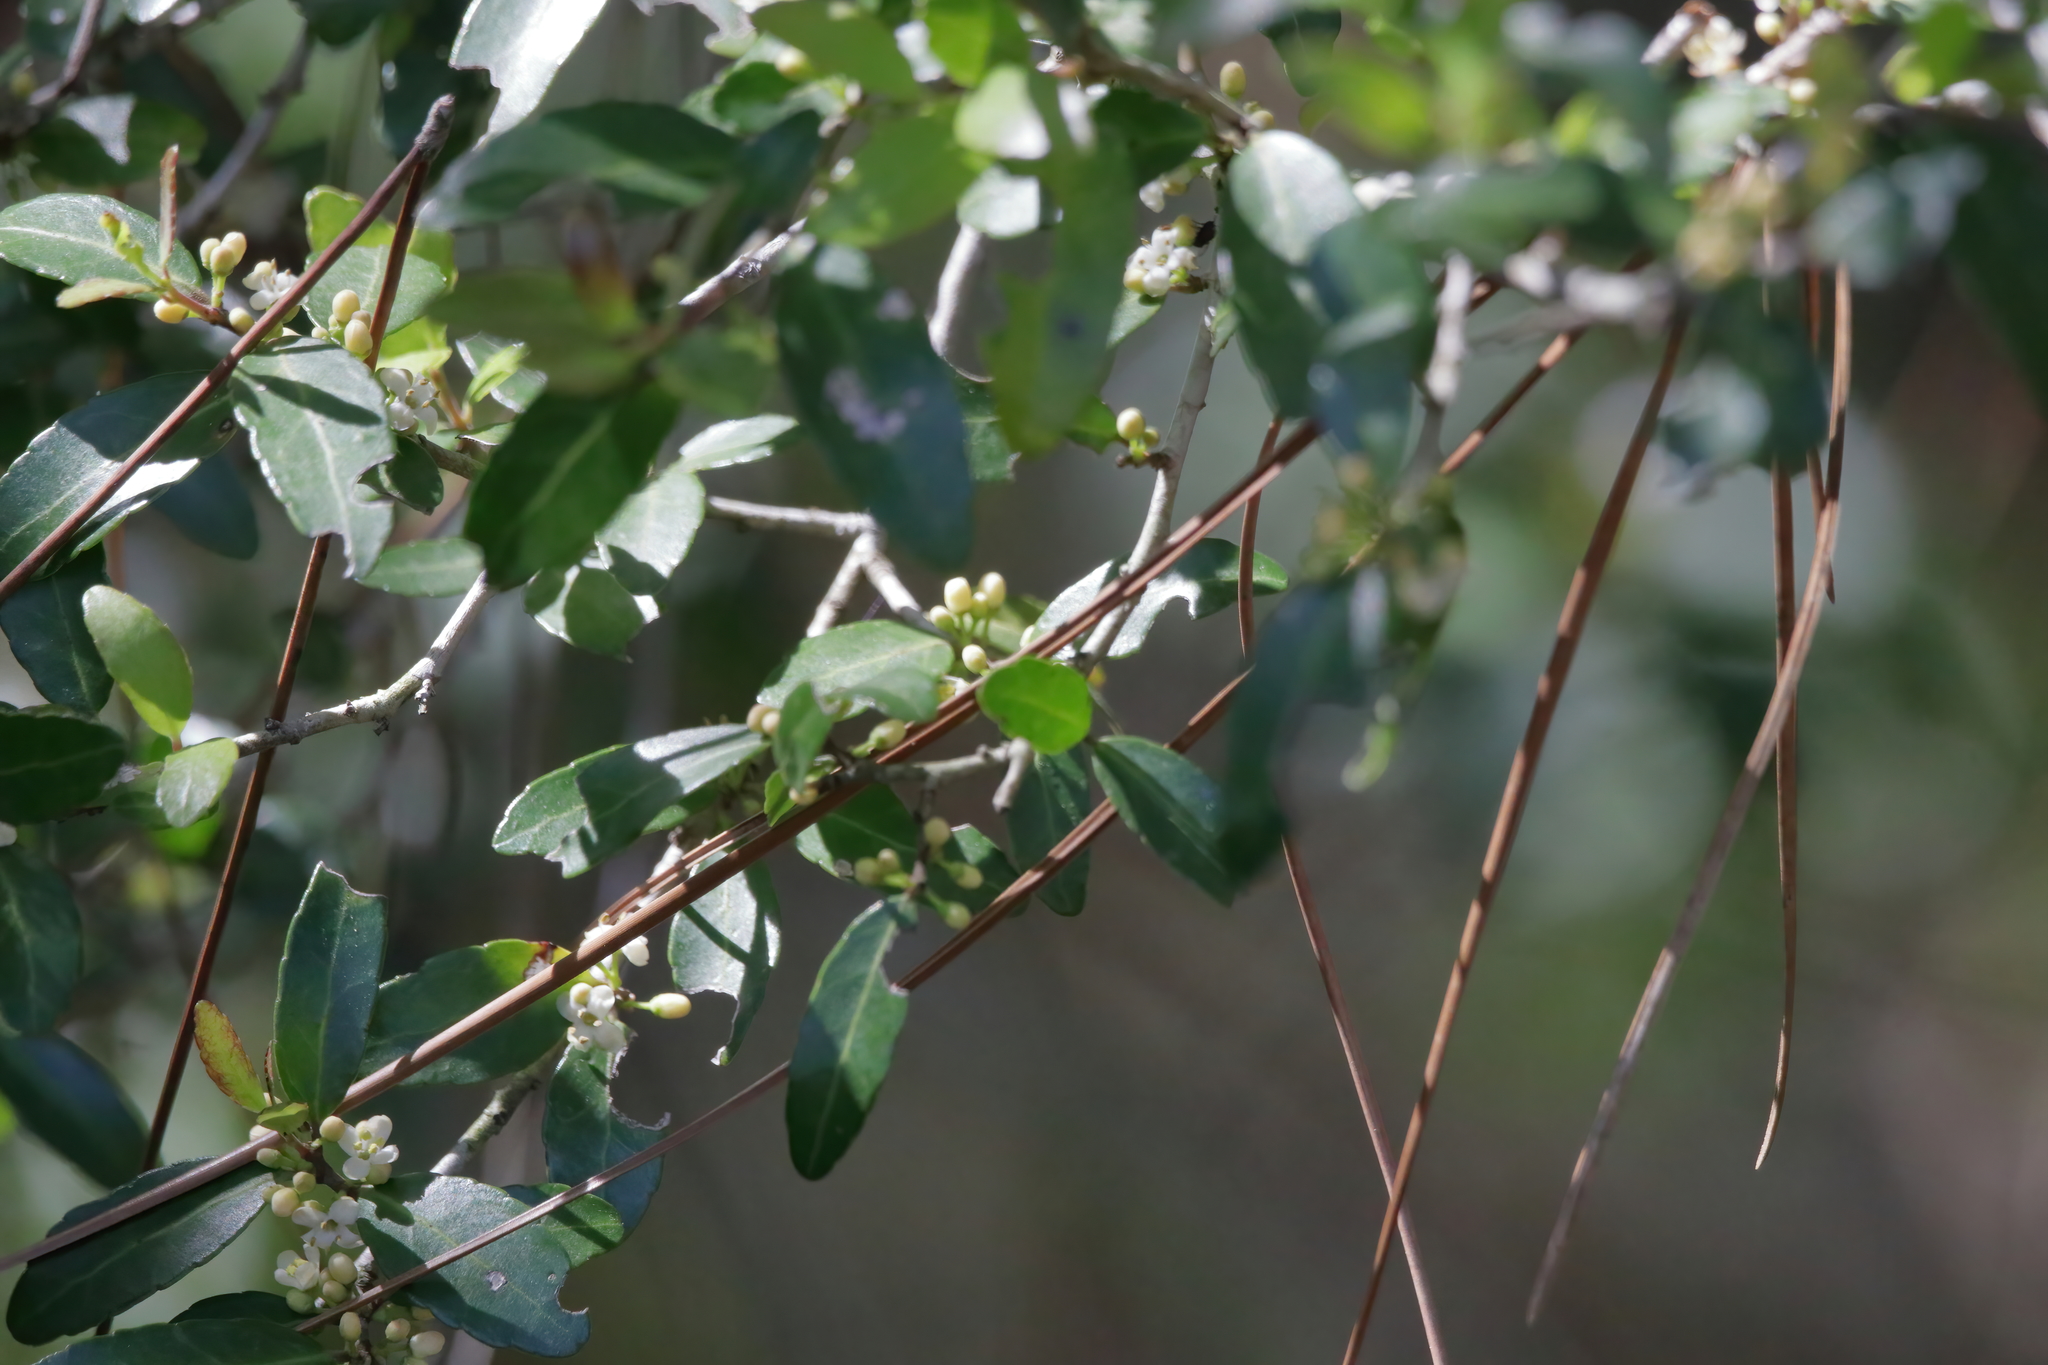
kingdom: Plantae
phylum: Tracheophyta
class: Magnoliopsida
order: Ericales
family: Ericaceae
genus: Lyonia
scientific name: Lyonia lucida
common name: Fetterbush
